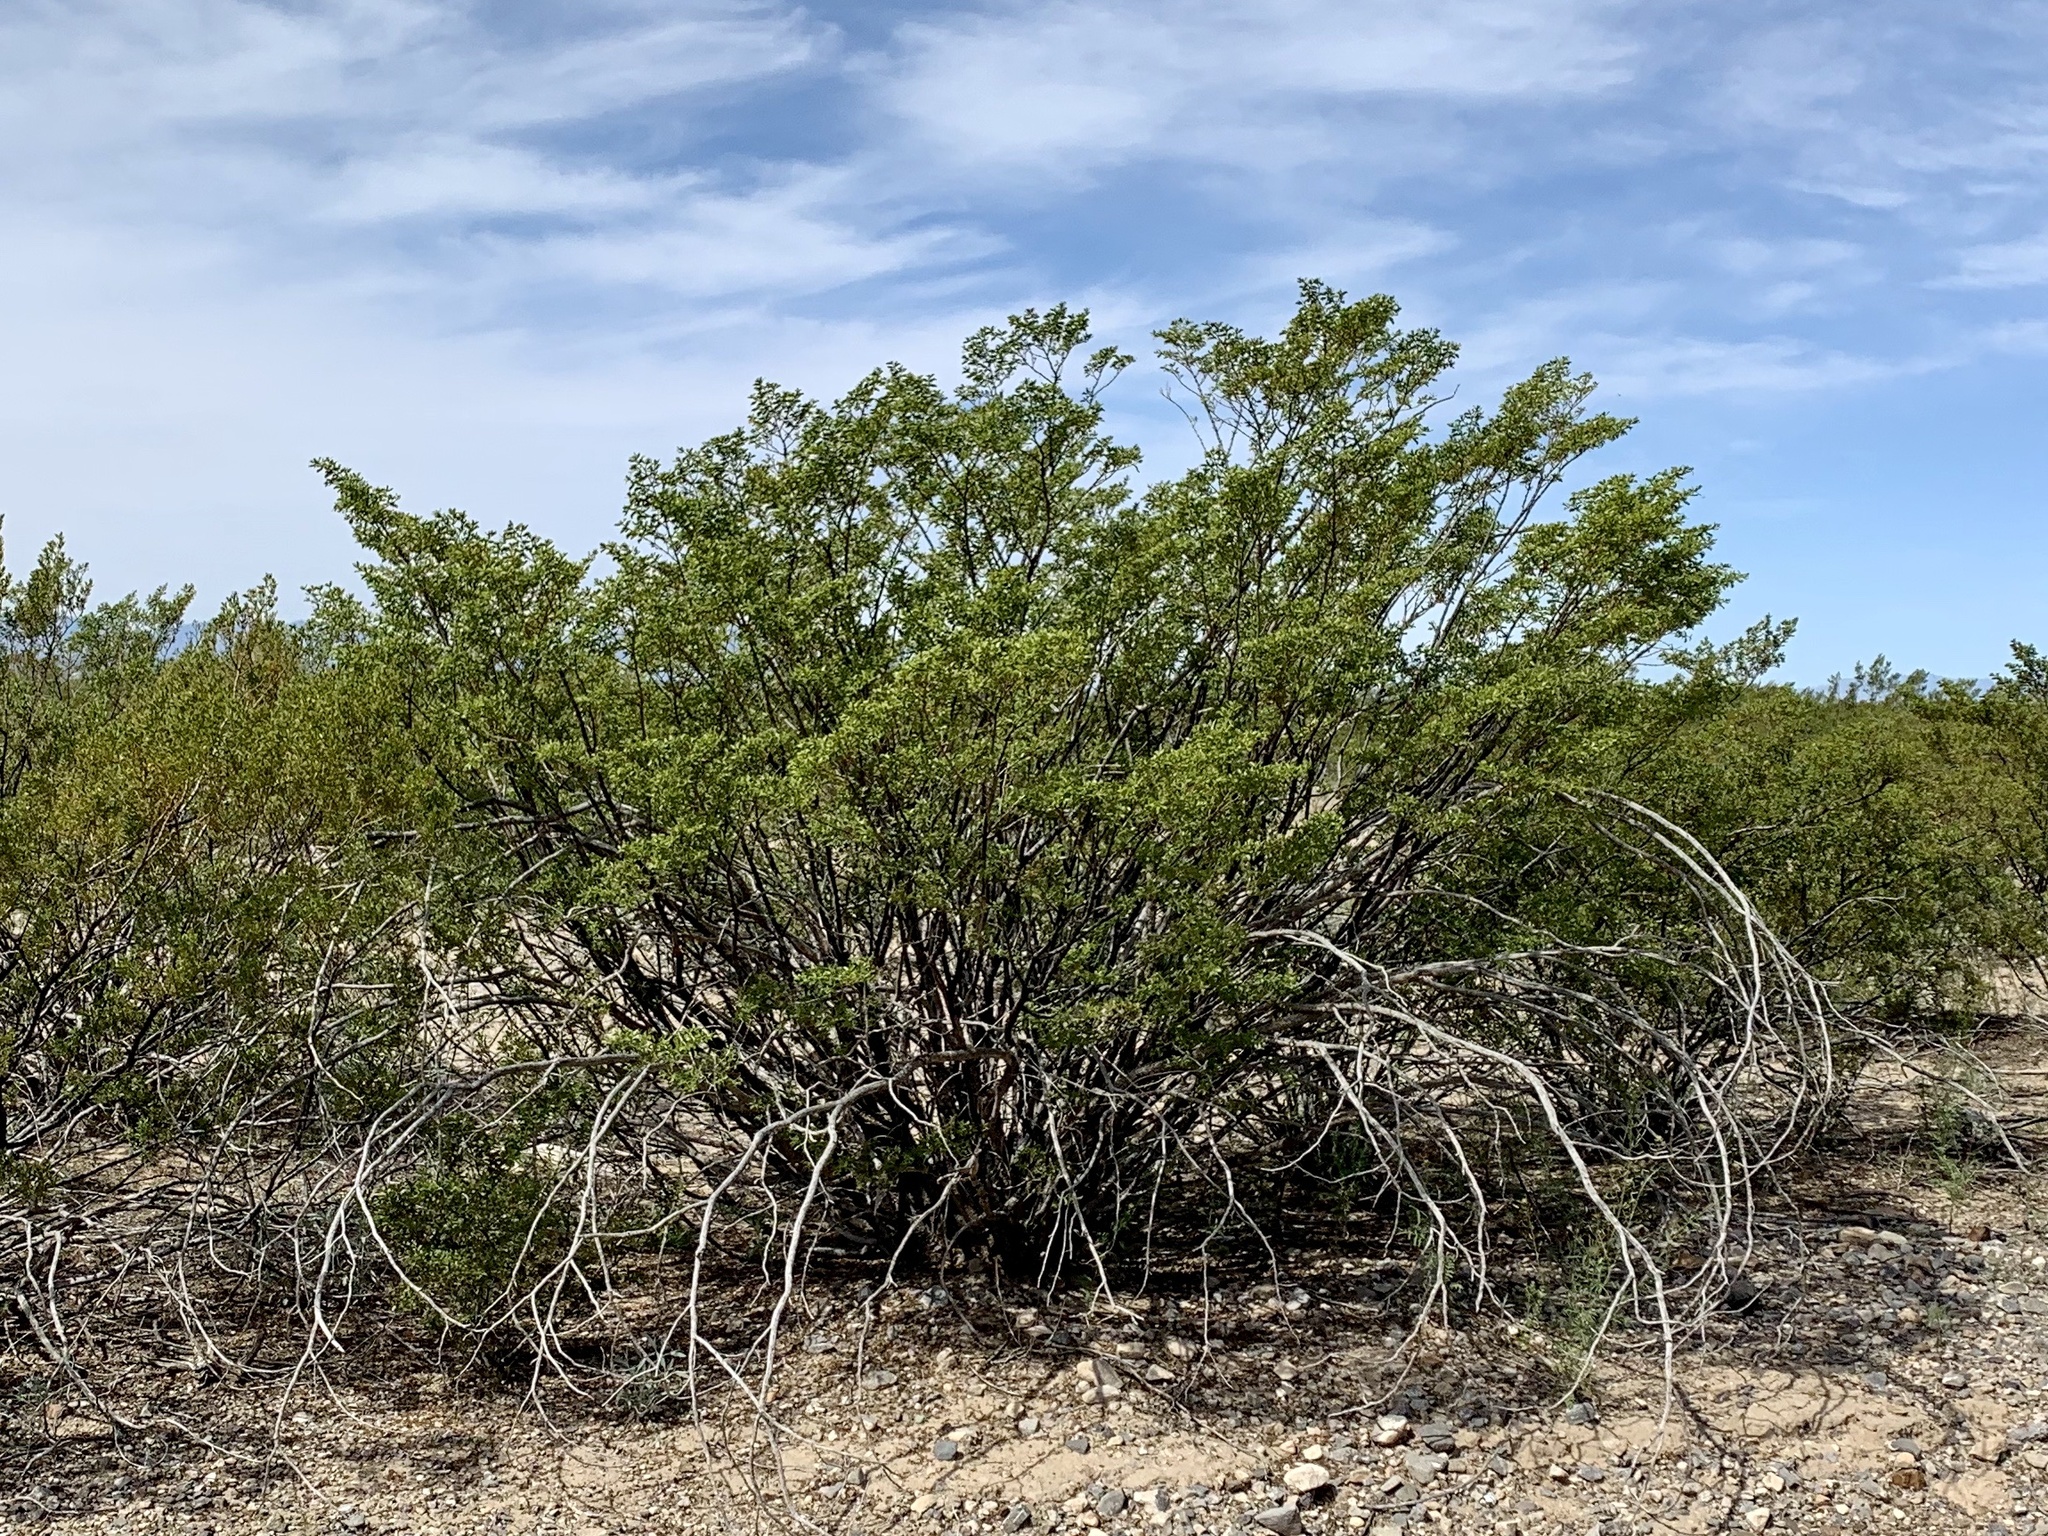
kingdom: Plantae
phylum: Tracheophyta
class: Magnoliopsida
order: Zygophyllales
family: Zygophyllaceae
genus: Larrea
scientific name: Larrea tridentata
